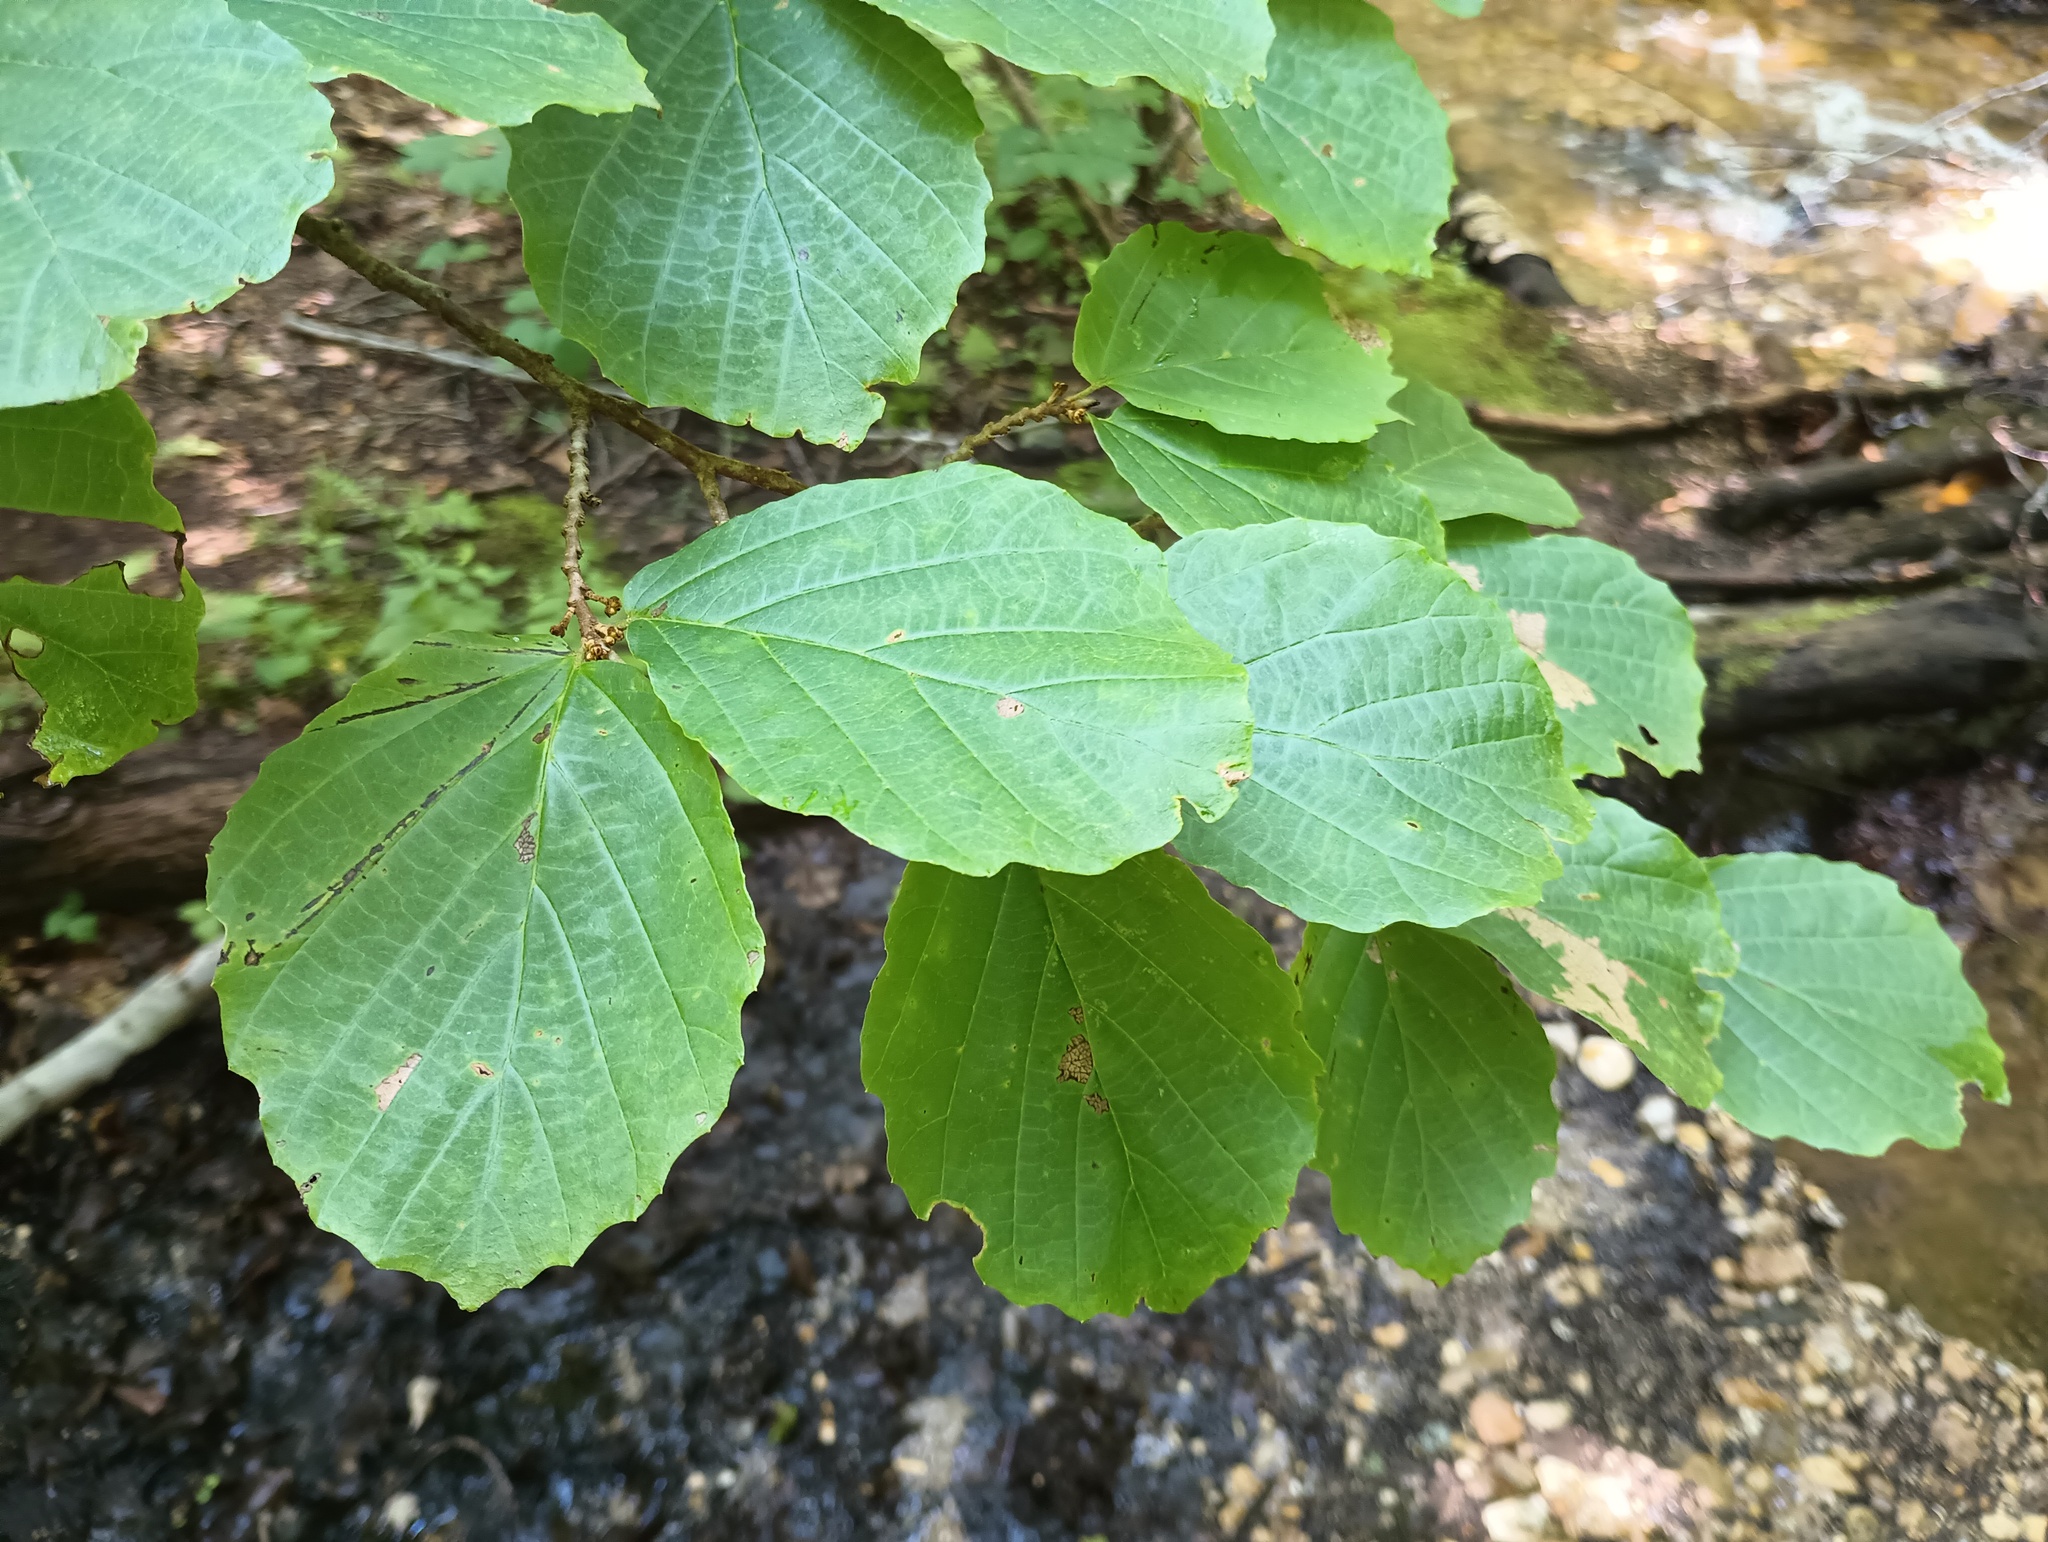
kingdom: Plantae
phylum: Tracheophyta
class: Magnoliopsida
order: Saxifragales
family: Hamamelidaceae
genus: Hamamelis
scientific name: Hamamelis virginiana
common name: Witch-hazel
